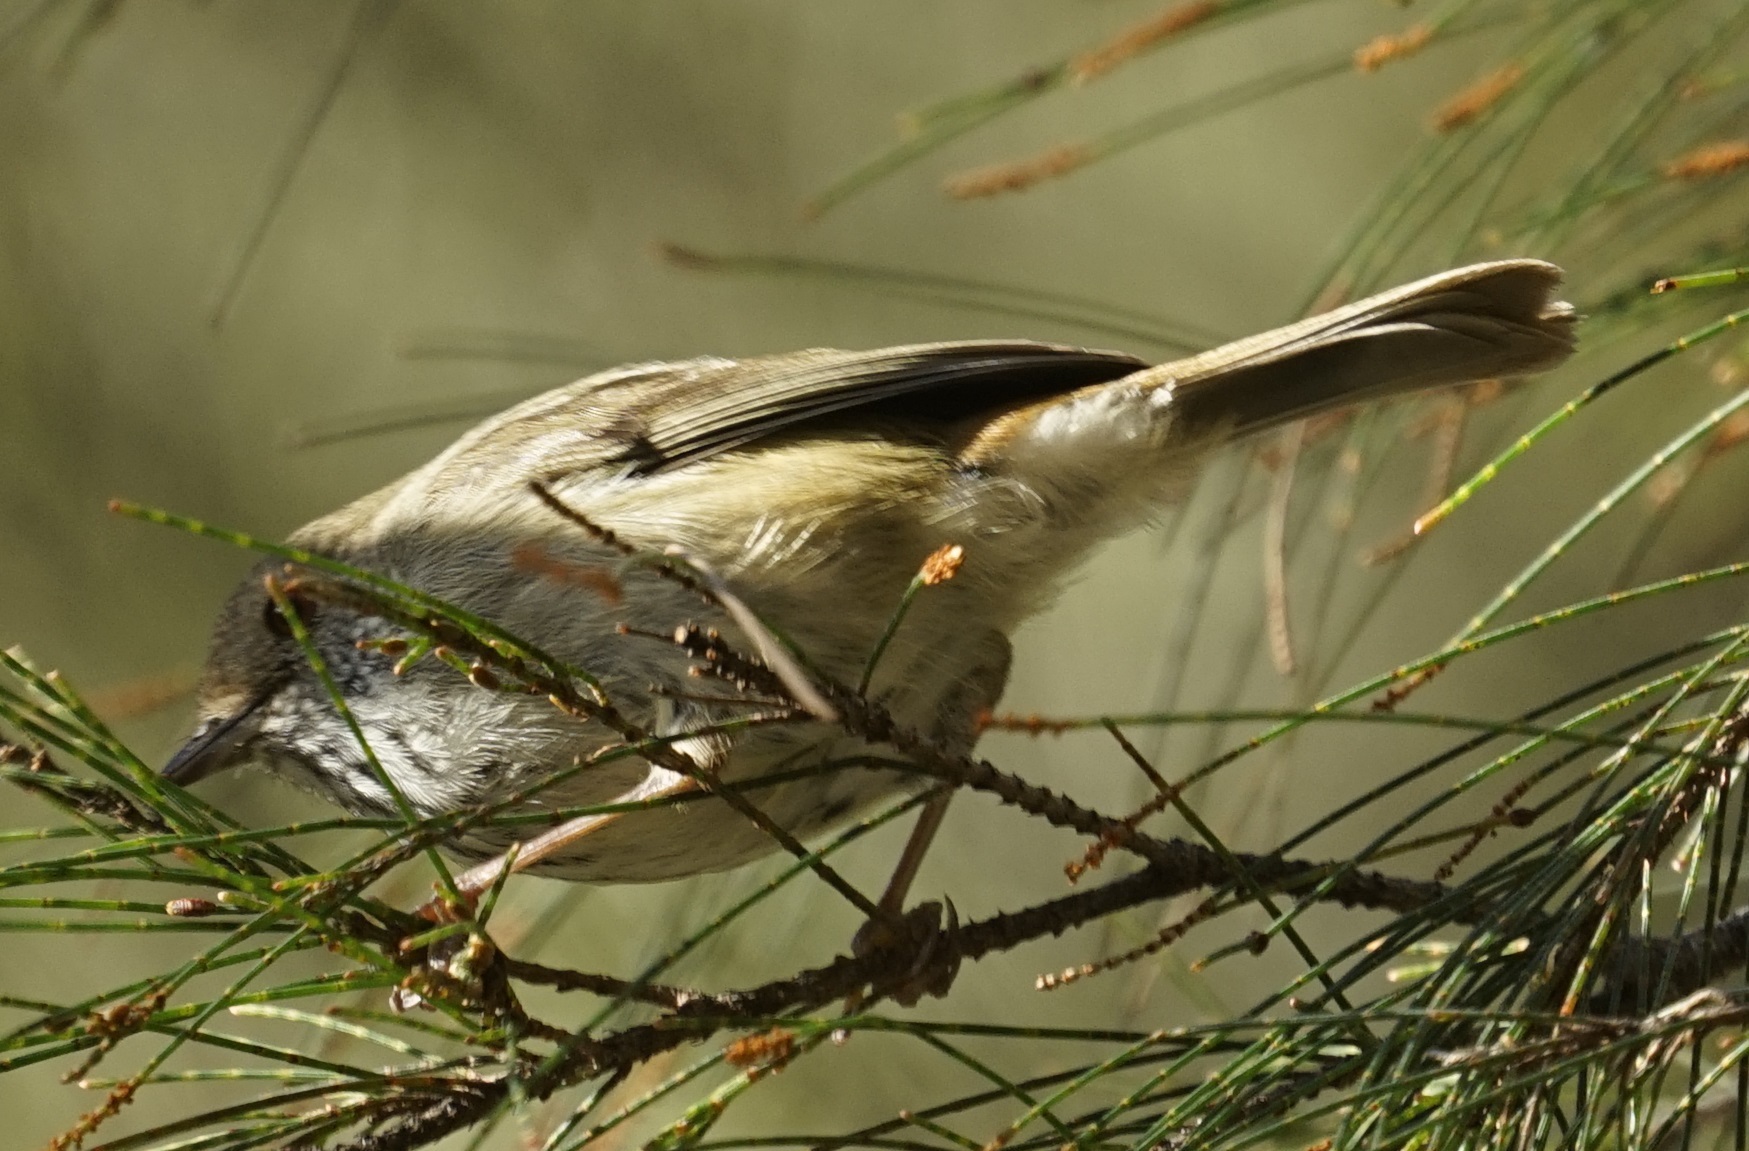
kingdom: Animalia
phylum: Chordata
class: Aves
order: Passeriformes
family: Acanthizidae
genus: Acanthiza
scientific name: Acanthiza pusilla
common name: Brown thornbill
